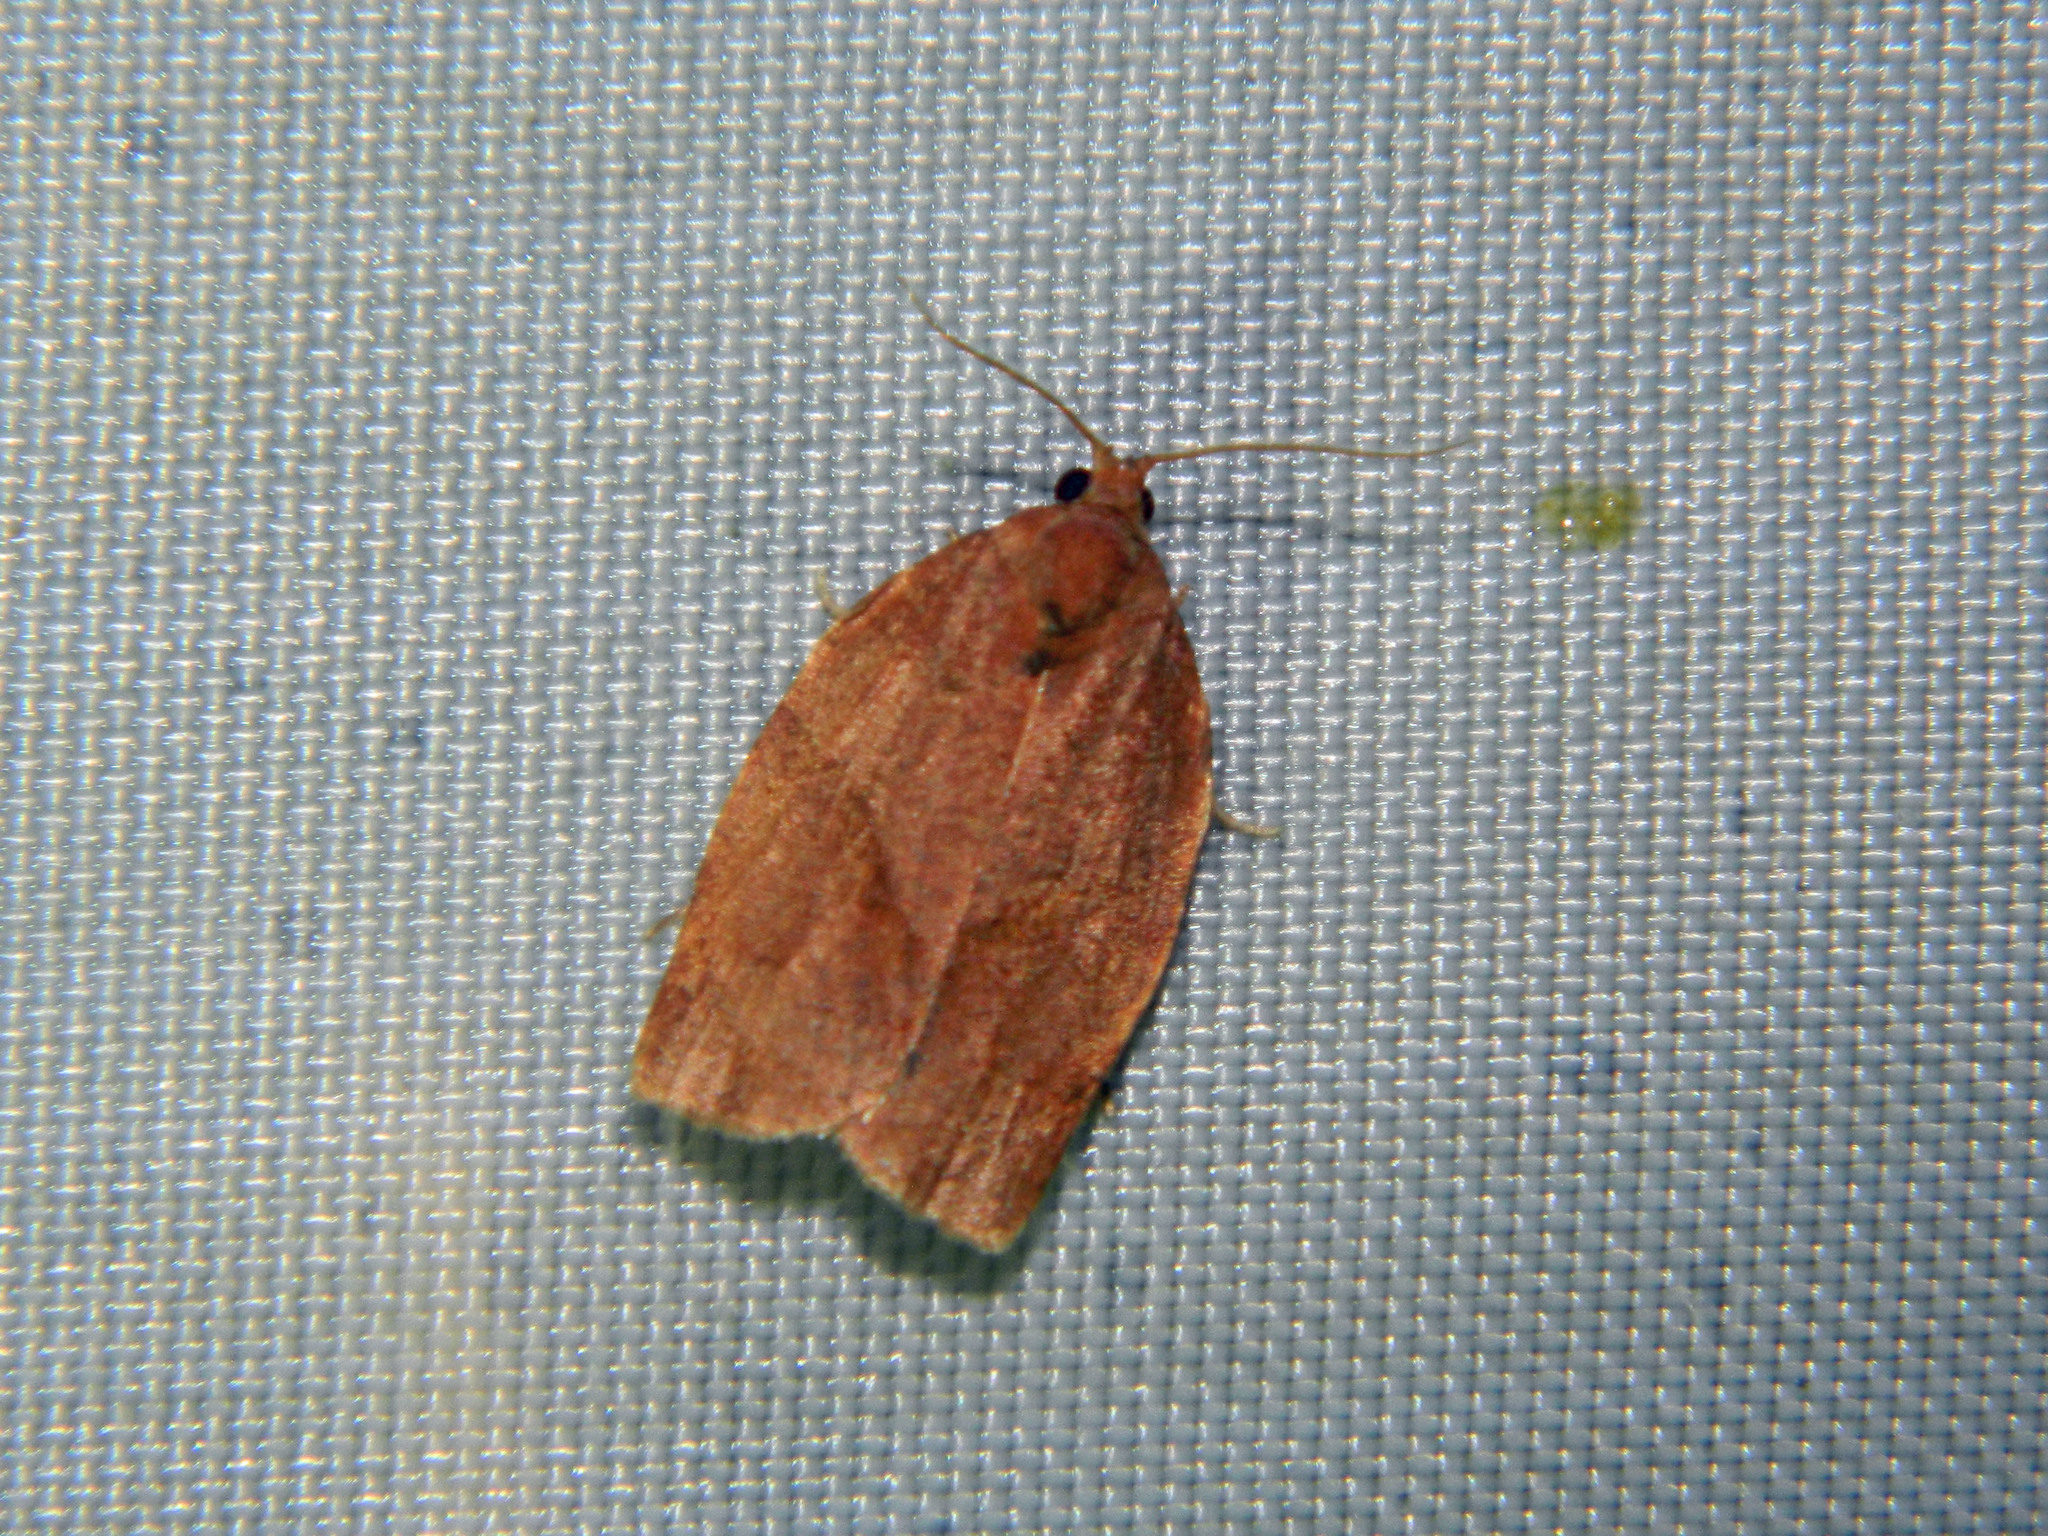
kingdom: Animalia
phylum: Arthropoda
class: Insecta
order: Lepidoptera
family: Tortricidae
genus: Choristoneura
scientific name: Choristoneura rosaceana
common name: Oblique-banded leafroller moth
